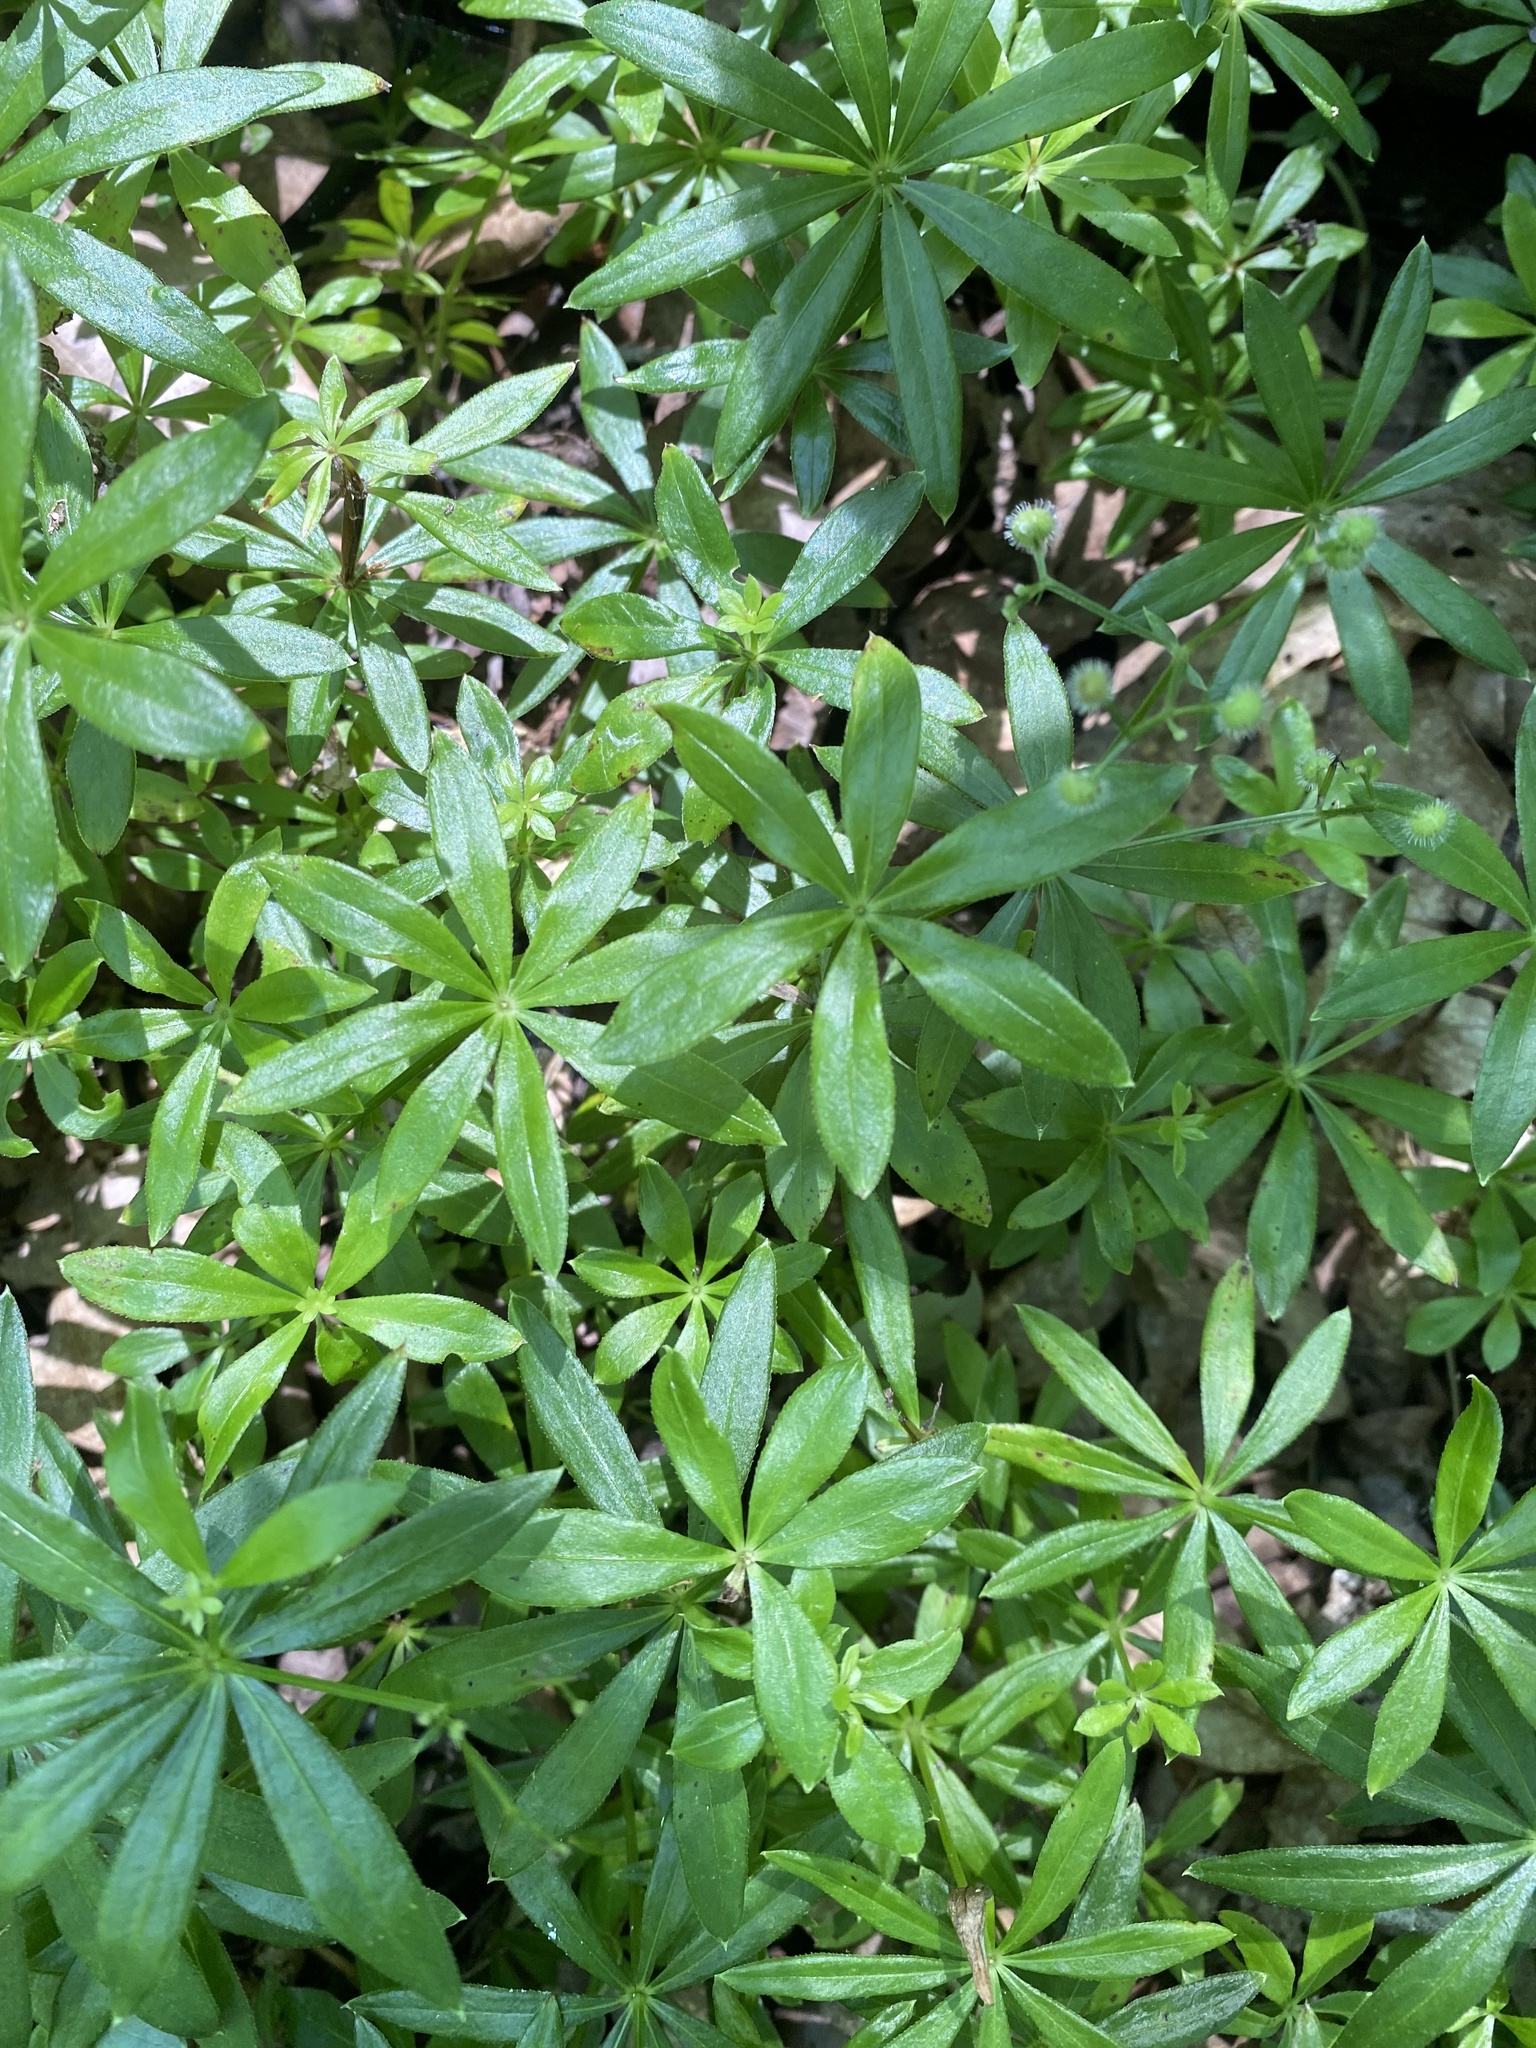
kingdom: Plantae
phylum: Tracheophyta
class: Magnoliopsida
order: Gentianales
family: Rubiaceae
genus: Galium
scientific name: Galium odoratum
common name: Sweet woodruff
